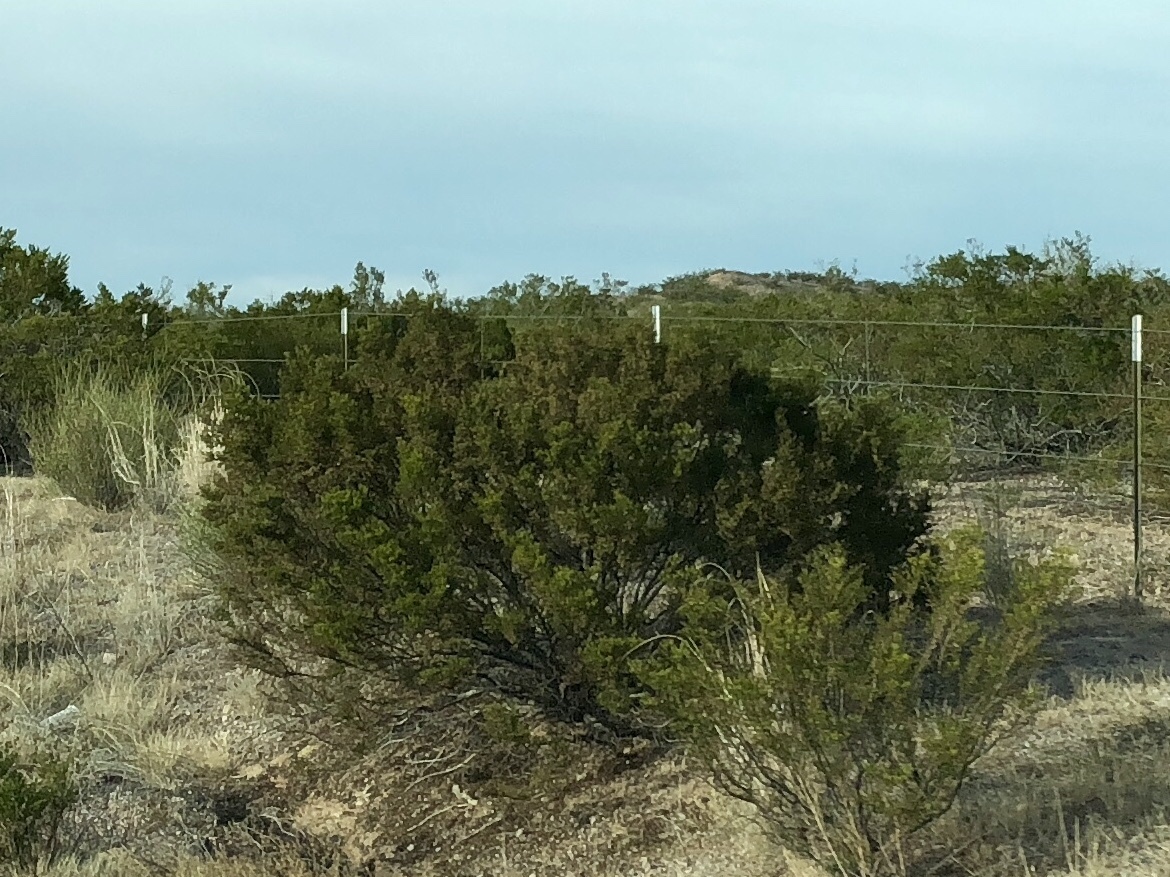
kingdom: Plantae
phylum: Tracheophyta
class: Magnoliopsida
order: Zygophyllales
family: Zygophyllaceae
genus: Larrea
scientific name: Larrea tridentata
